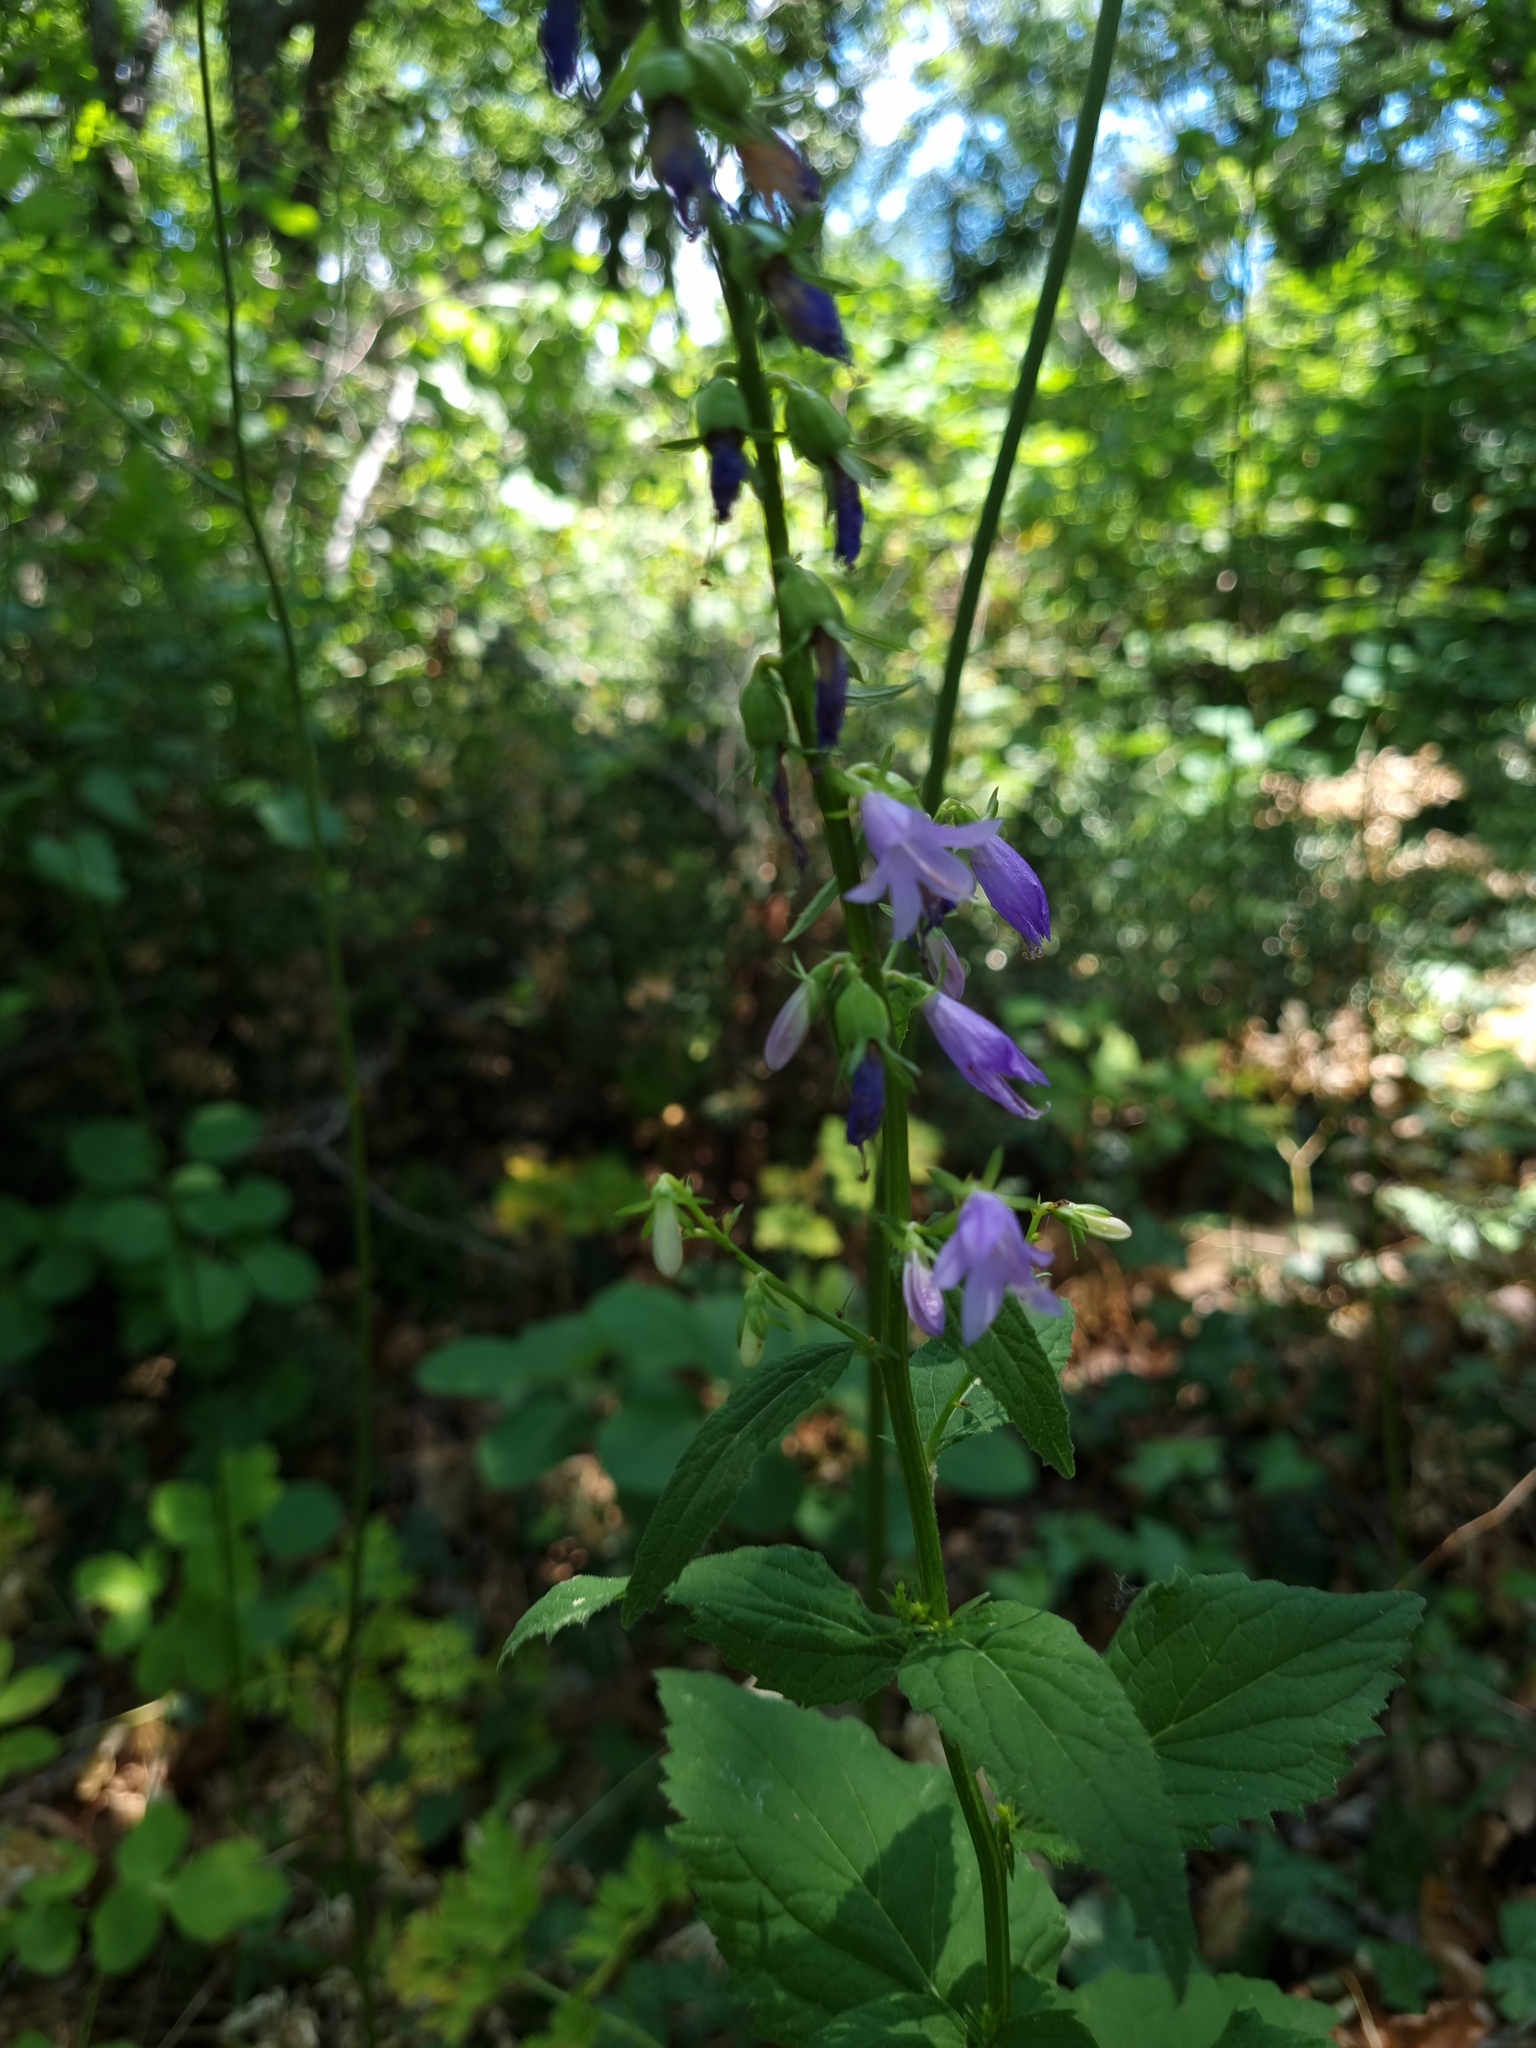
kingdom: Plantae
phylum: Tracheophyta
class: Magnoliopsida
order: Asterales
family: Campanulaceae
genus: Campanula
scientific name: Campanula rapunculoides
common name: Creeping bellflower
